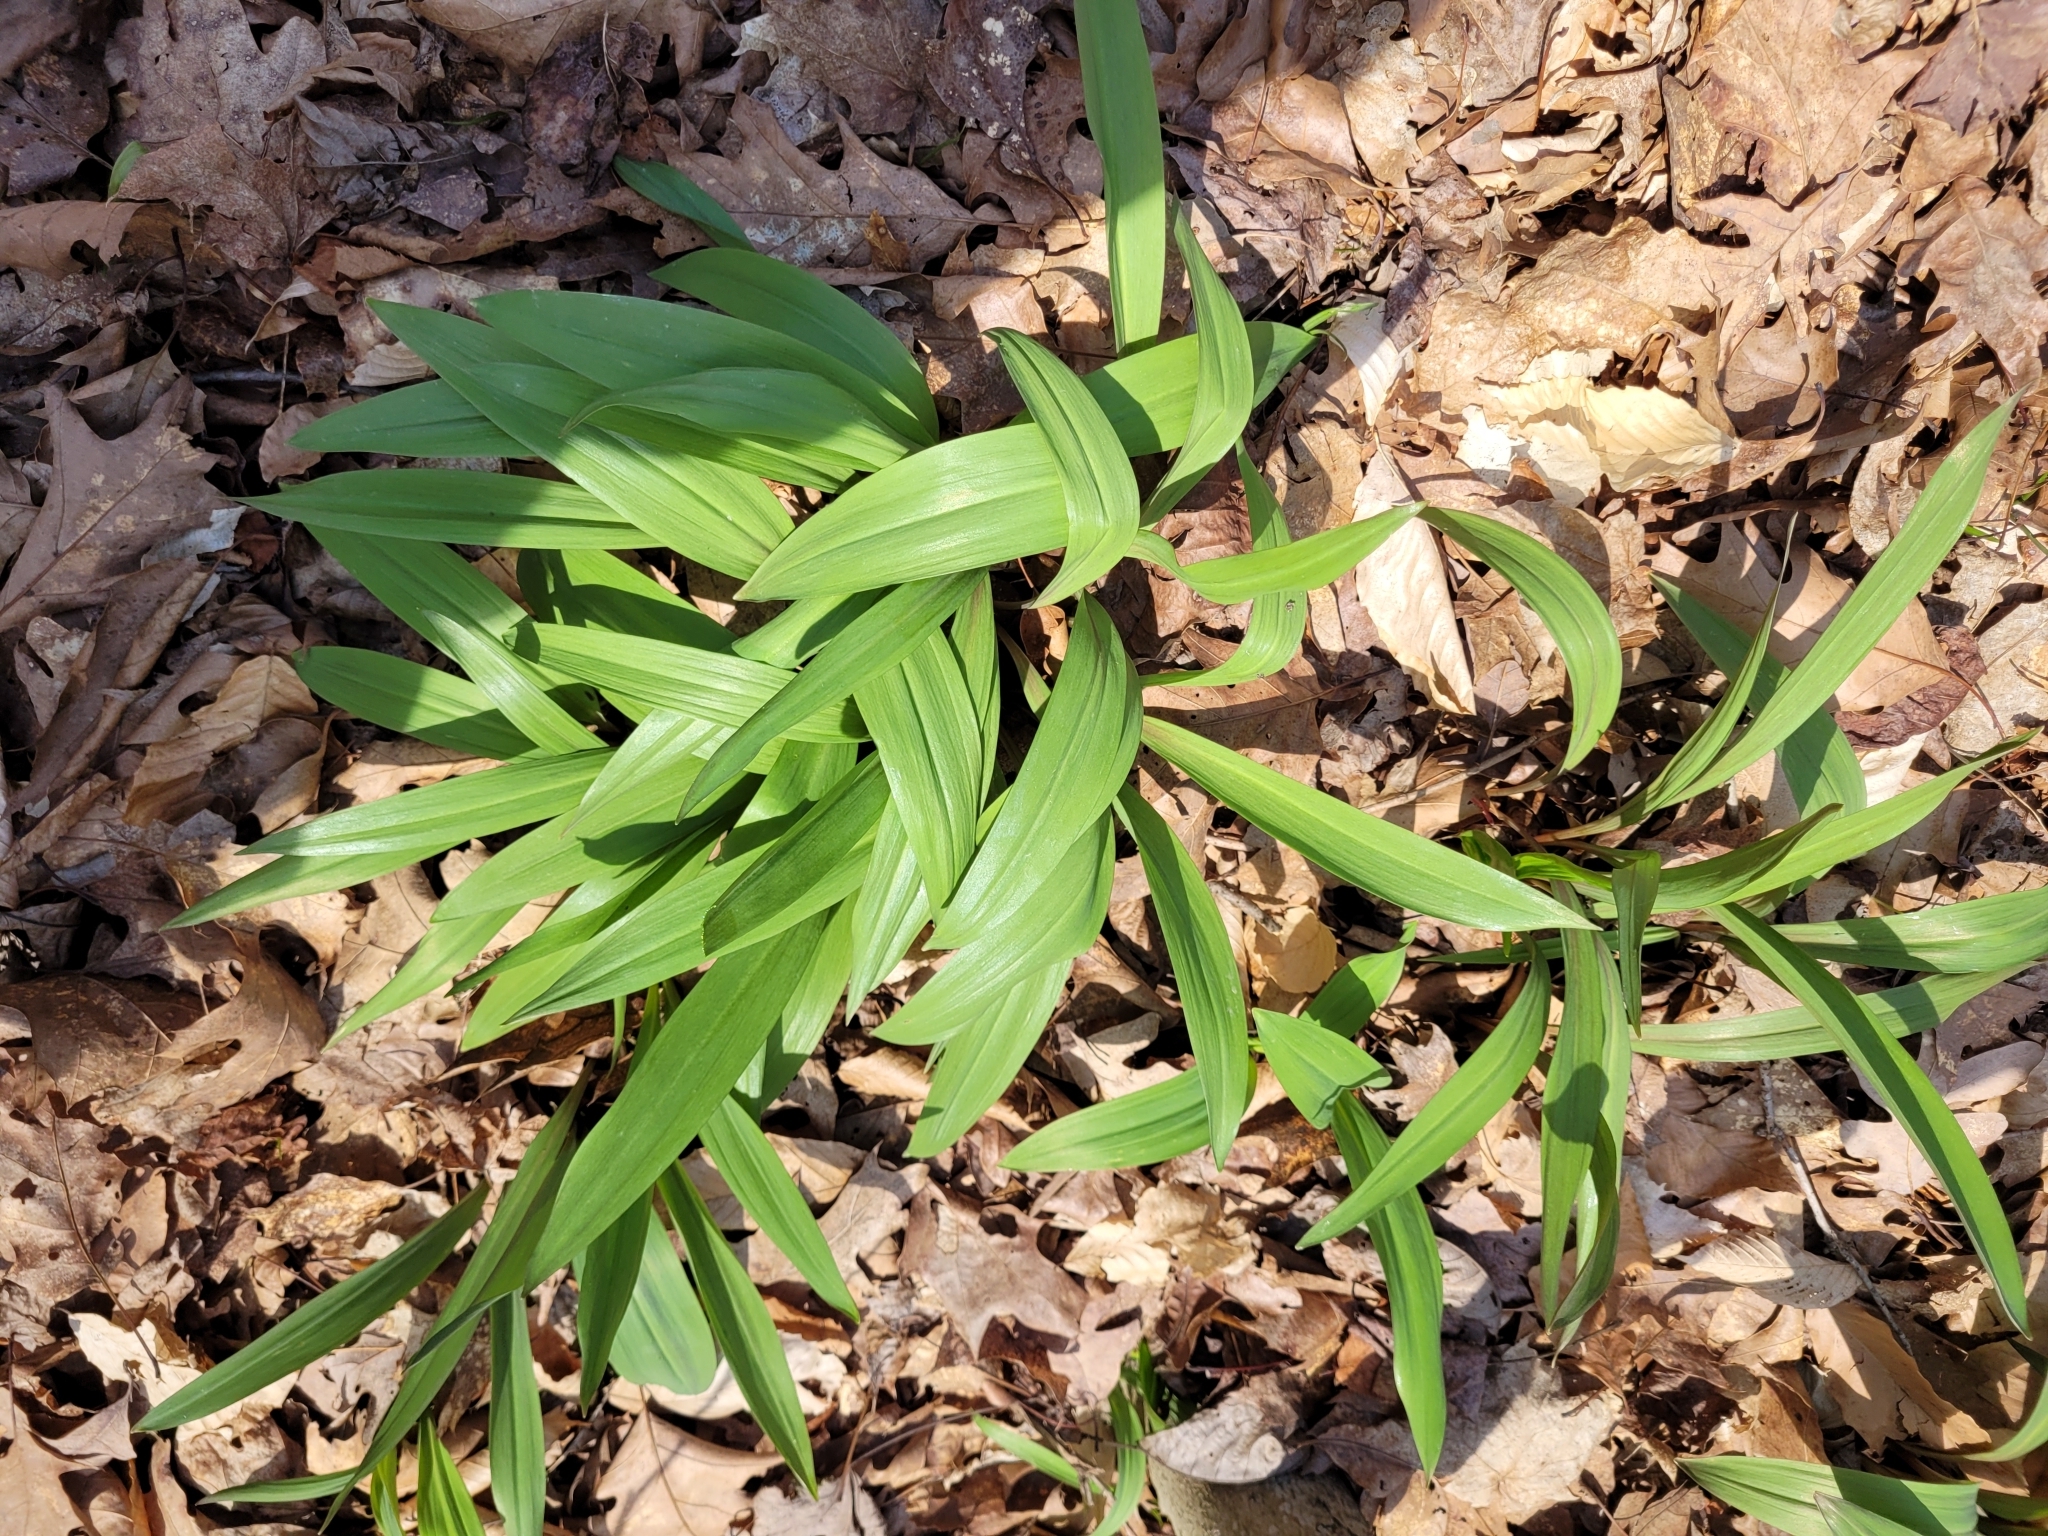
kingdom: Plantae
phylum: Tracheophyta
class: Liliopsida
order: Asparagales
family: Amaryllidaceae
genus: Allium
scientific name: Allium tricoccum
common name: Ramp
